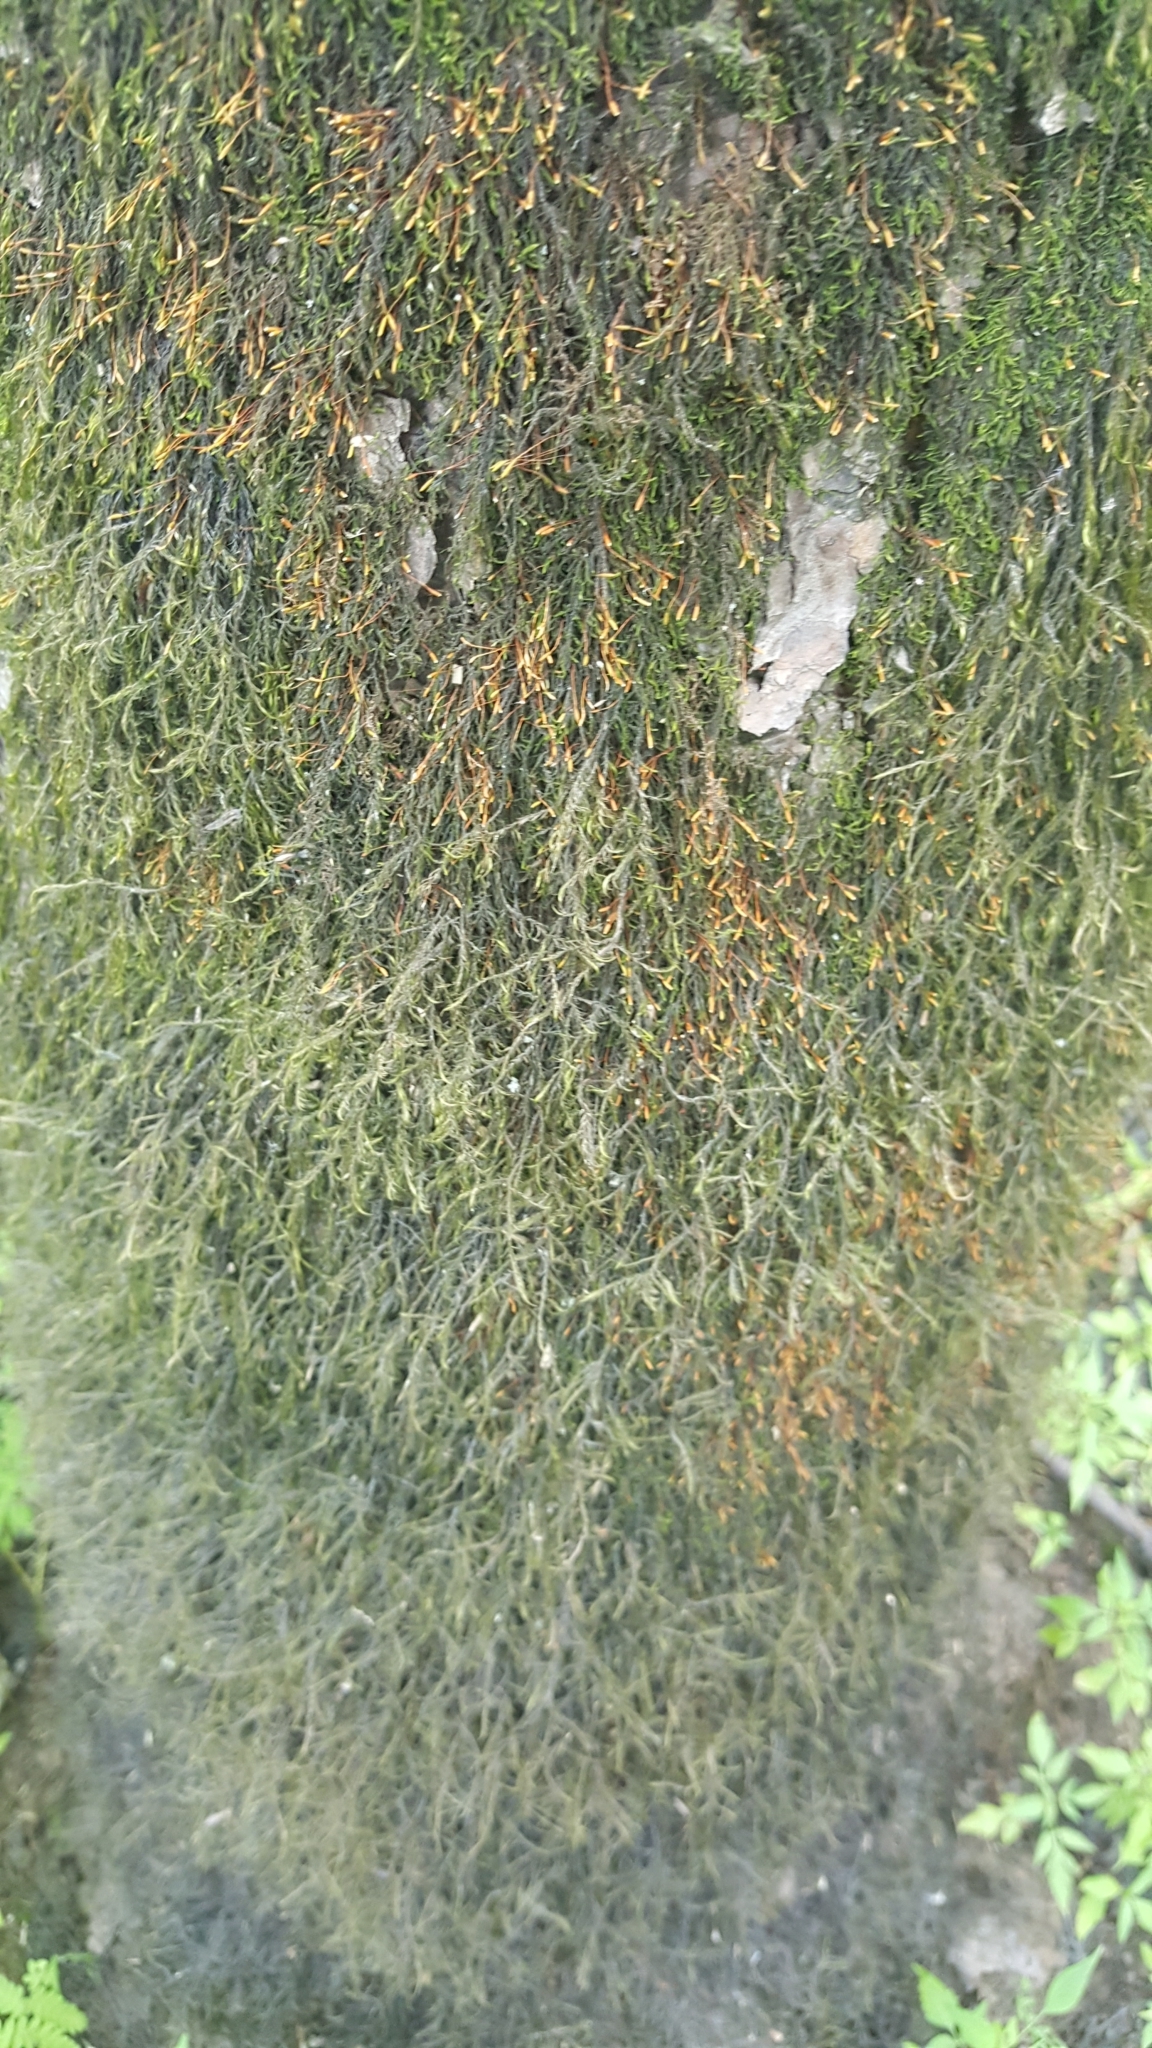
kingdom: Plantae
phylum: Bryophyta
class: Bryopsida
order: Hypnales
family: Fontinalaceae
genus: Dichelyma
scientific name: Dichelyma
